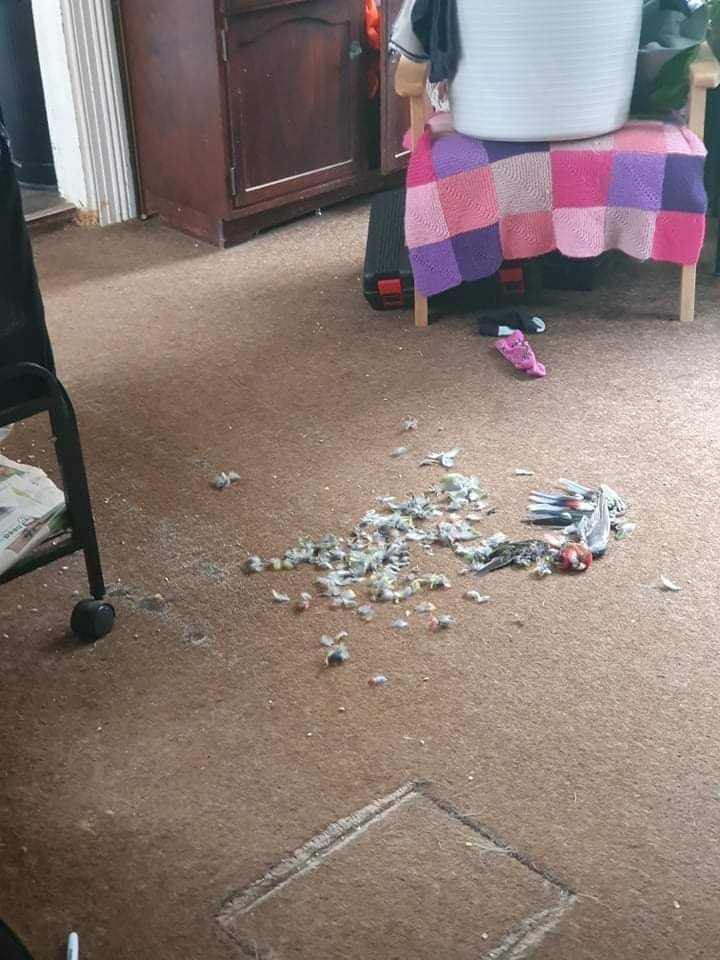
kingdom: Animalia
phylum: Chordata
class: Aves
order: Psittaciformes
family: Psittacidae
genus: Platycercus
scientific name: Platycercus eximius
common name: Eastern rosella
